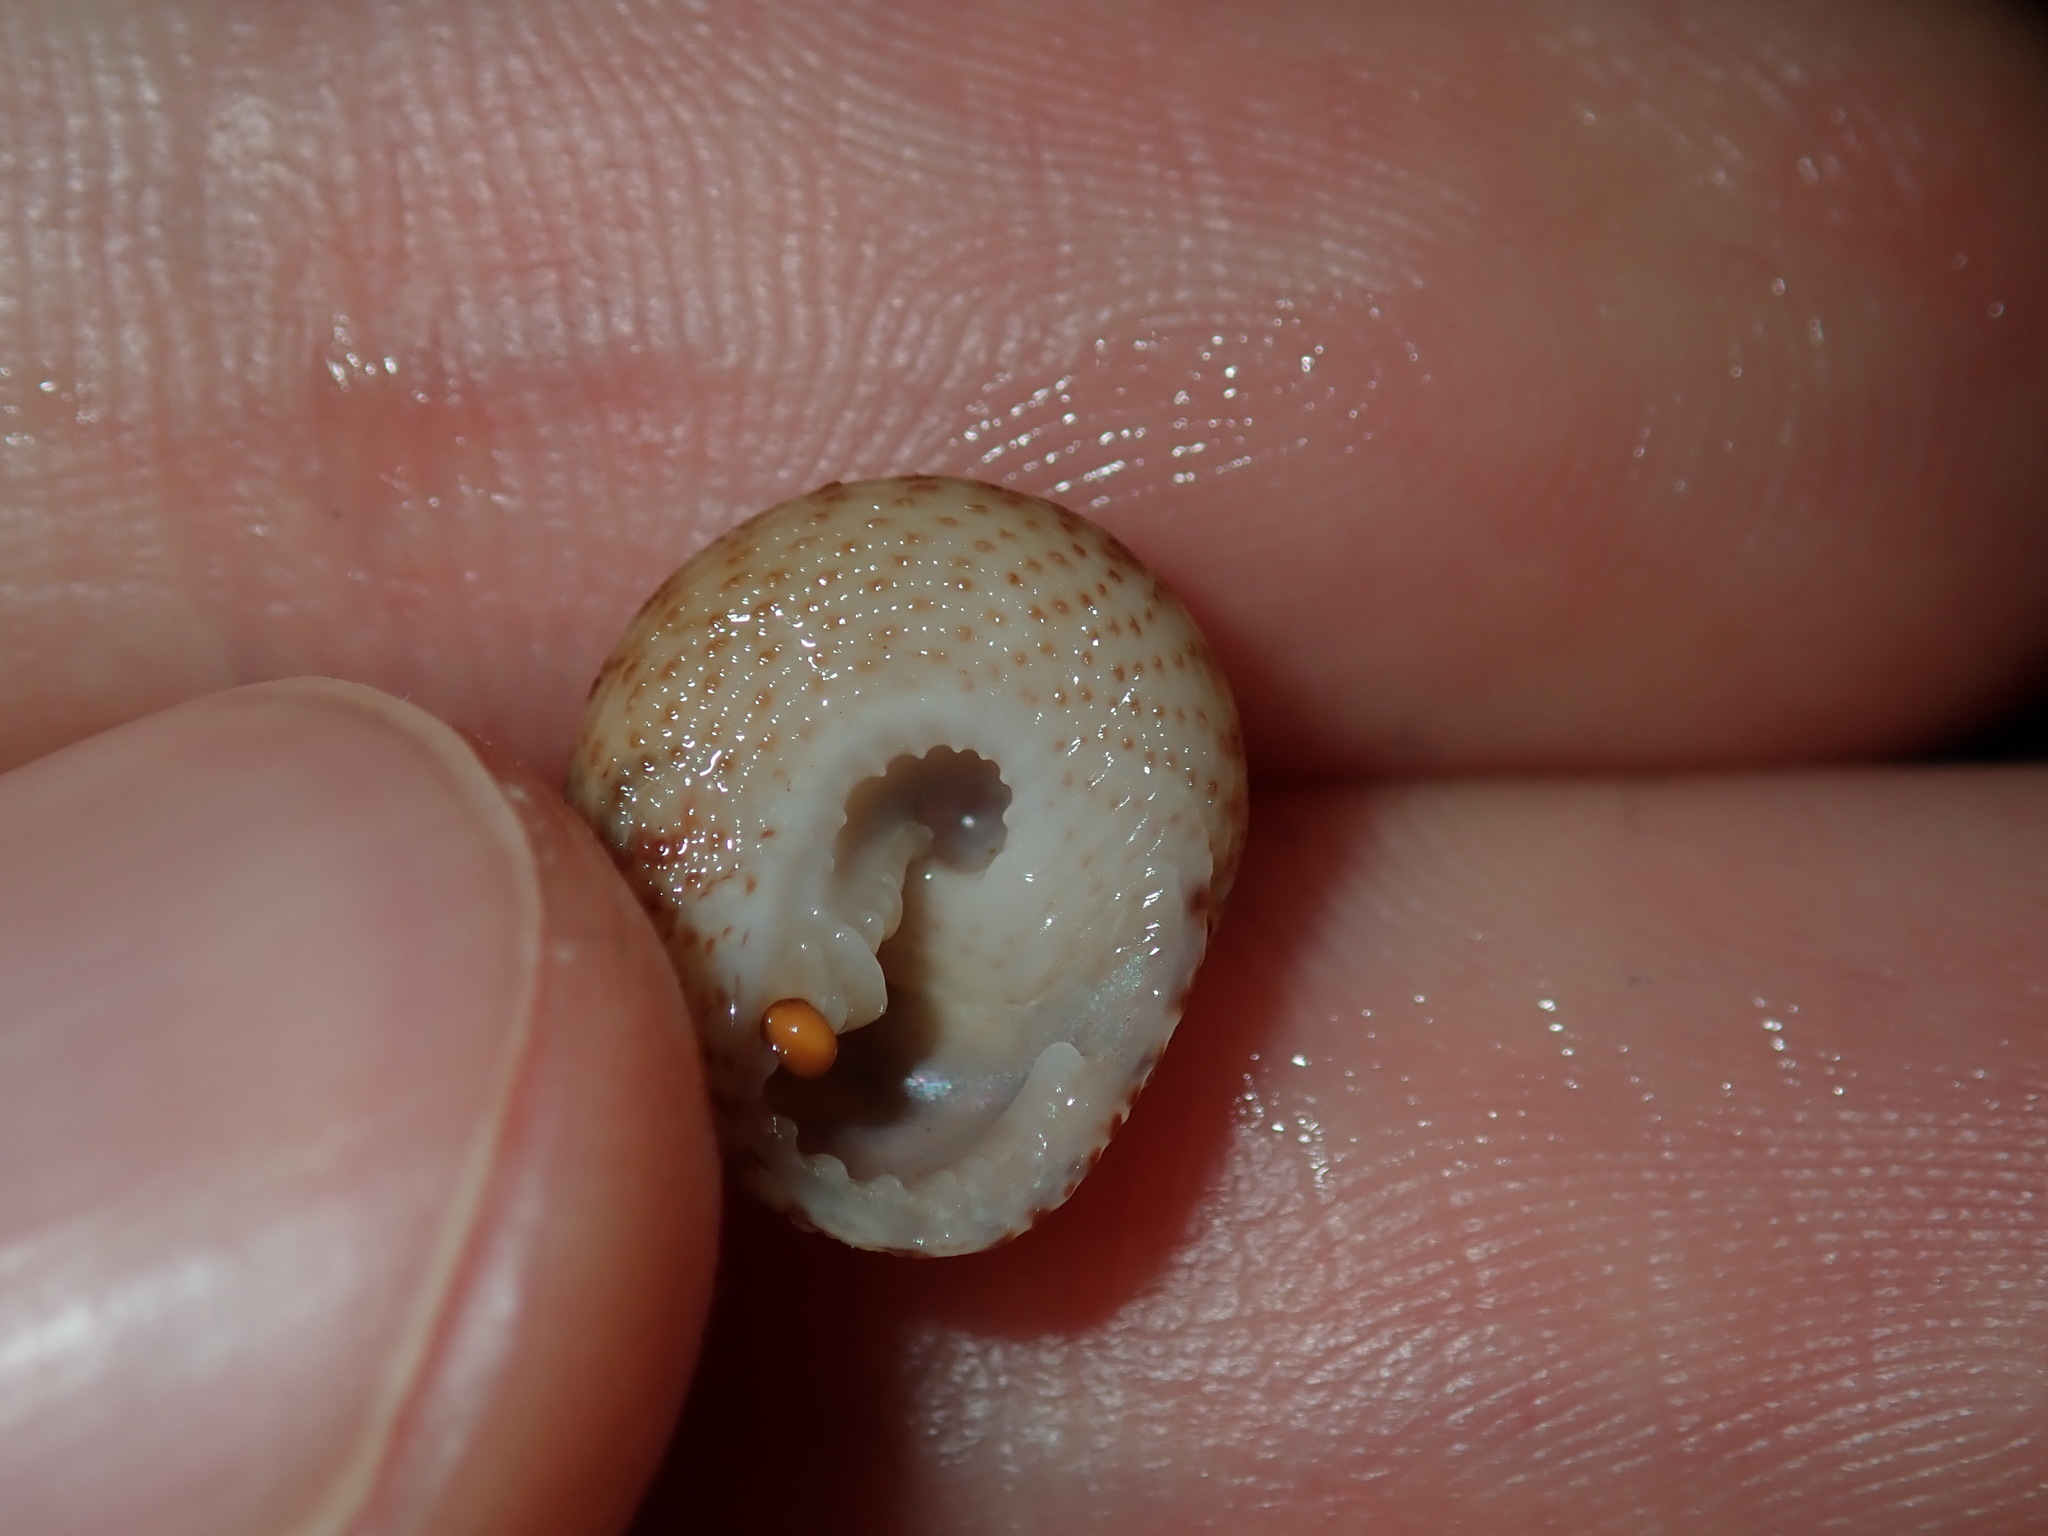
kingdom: Animalia
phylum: Mollusca
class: Gastropoda
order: Trochida
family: Trochidae
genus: Clanculus
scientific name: Clanculus floridus
